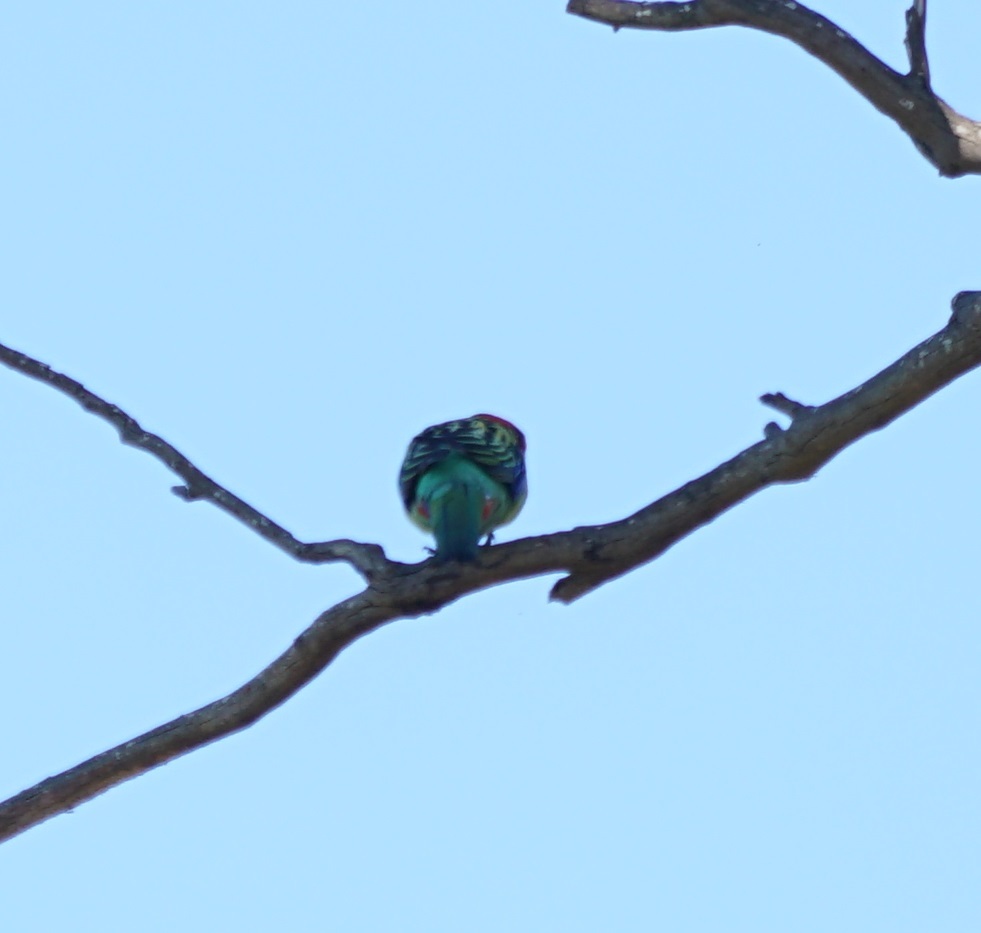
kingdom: Animalia
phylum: Chordata
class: Aves
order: Psittaciformes
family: Psittacidae
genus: Platycercus
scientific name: Platycercus eximius
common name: Eastern rosella
